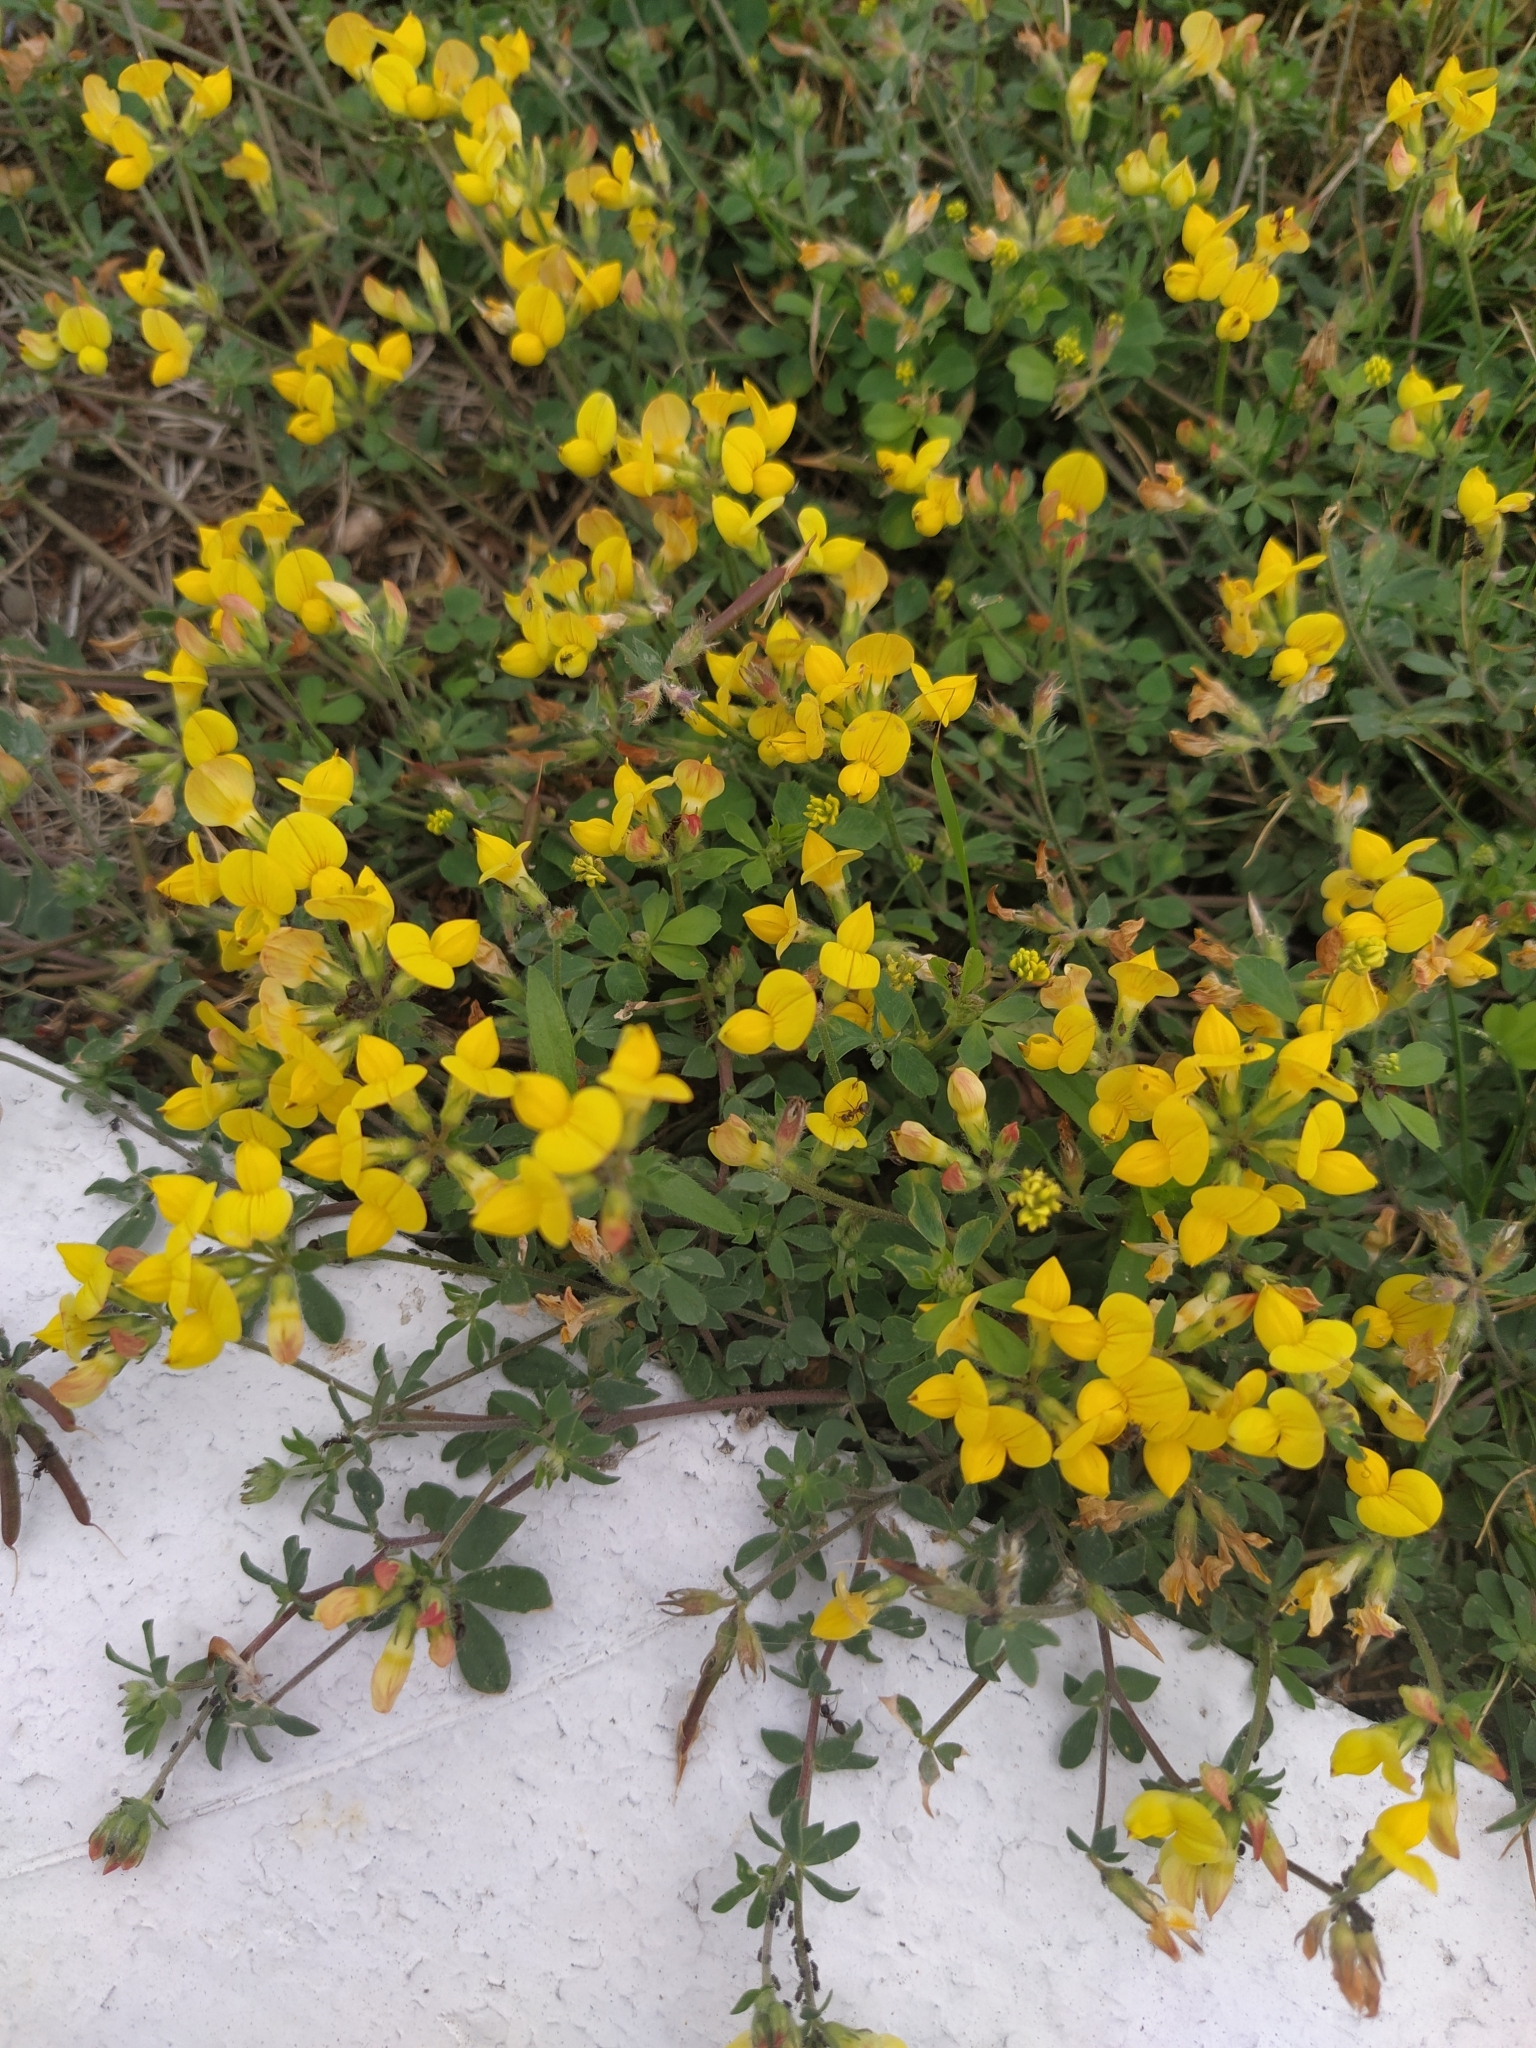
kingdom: Plantae
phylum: Tracheophyta
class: Magnoliopsida
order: Fabales
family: Fabaceae
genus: Lotus
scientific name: Lotus corniculatus
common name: Common bird's-foot-trefoil
